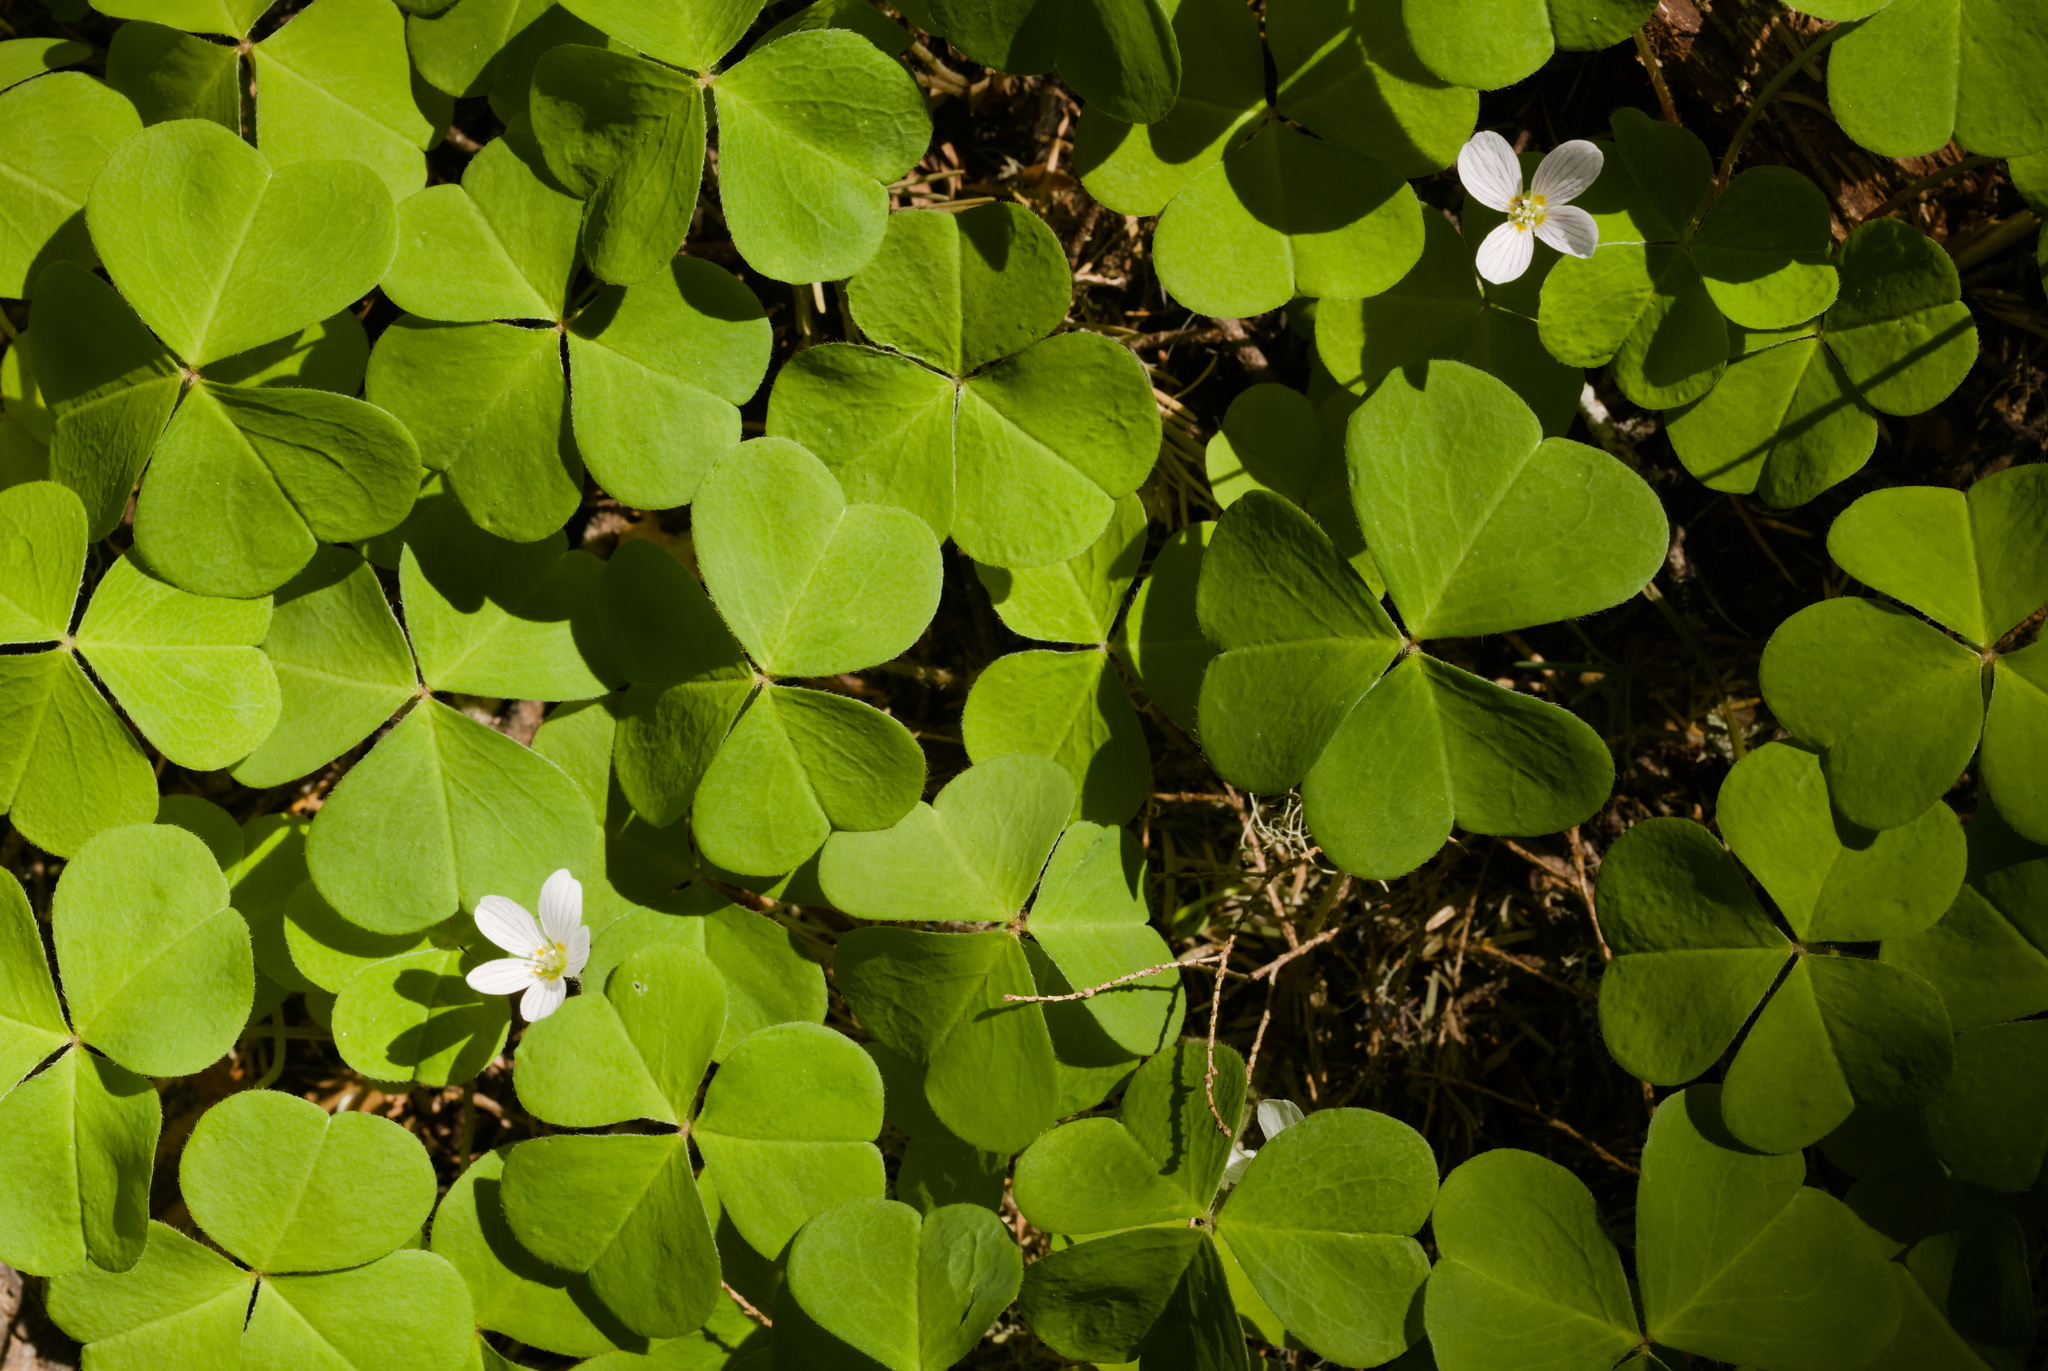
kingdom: Plantae
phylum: Tracheophyta
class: Magnoliopsida
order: Oxalidales
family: Oxalidaceae
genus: Oxalis
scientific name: Oxalis oregana
